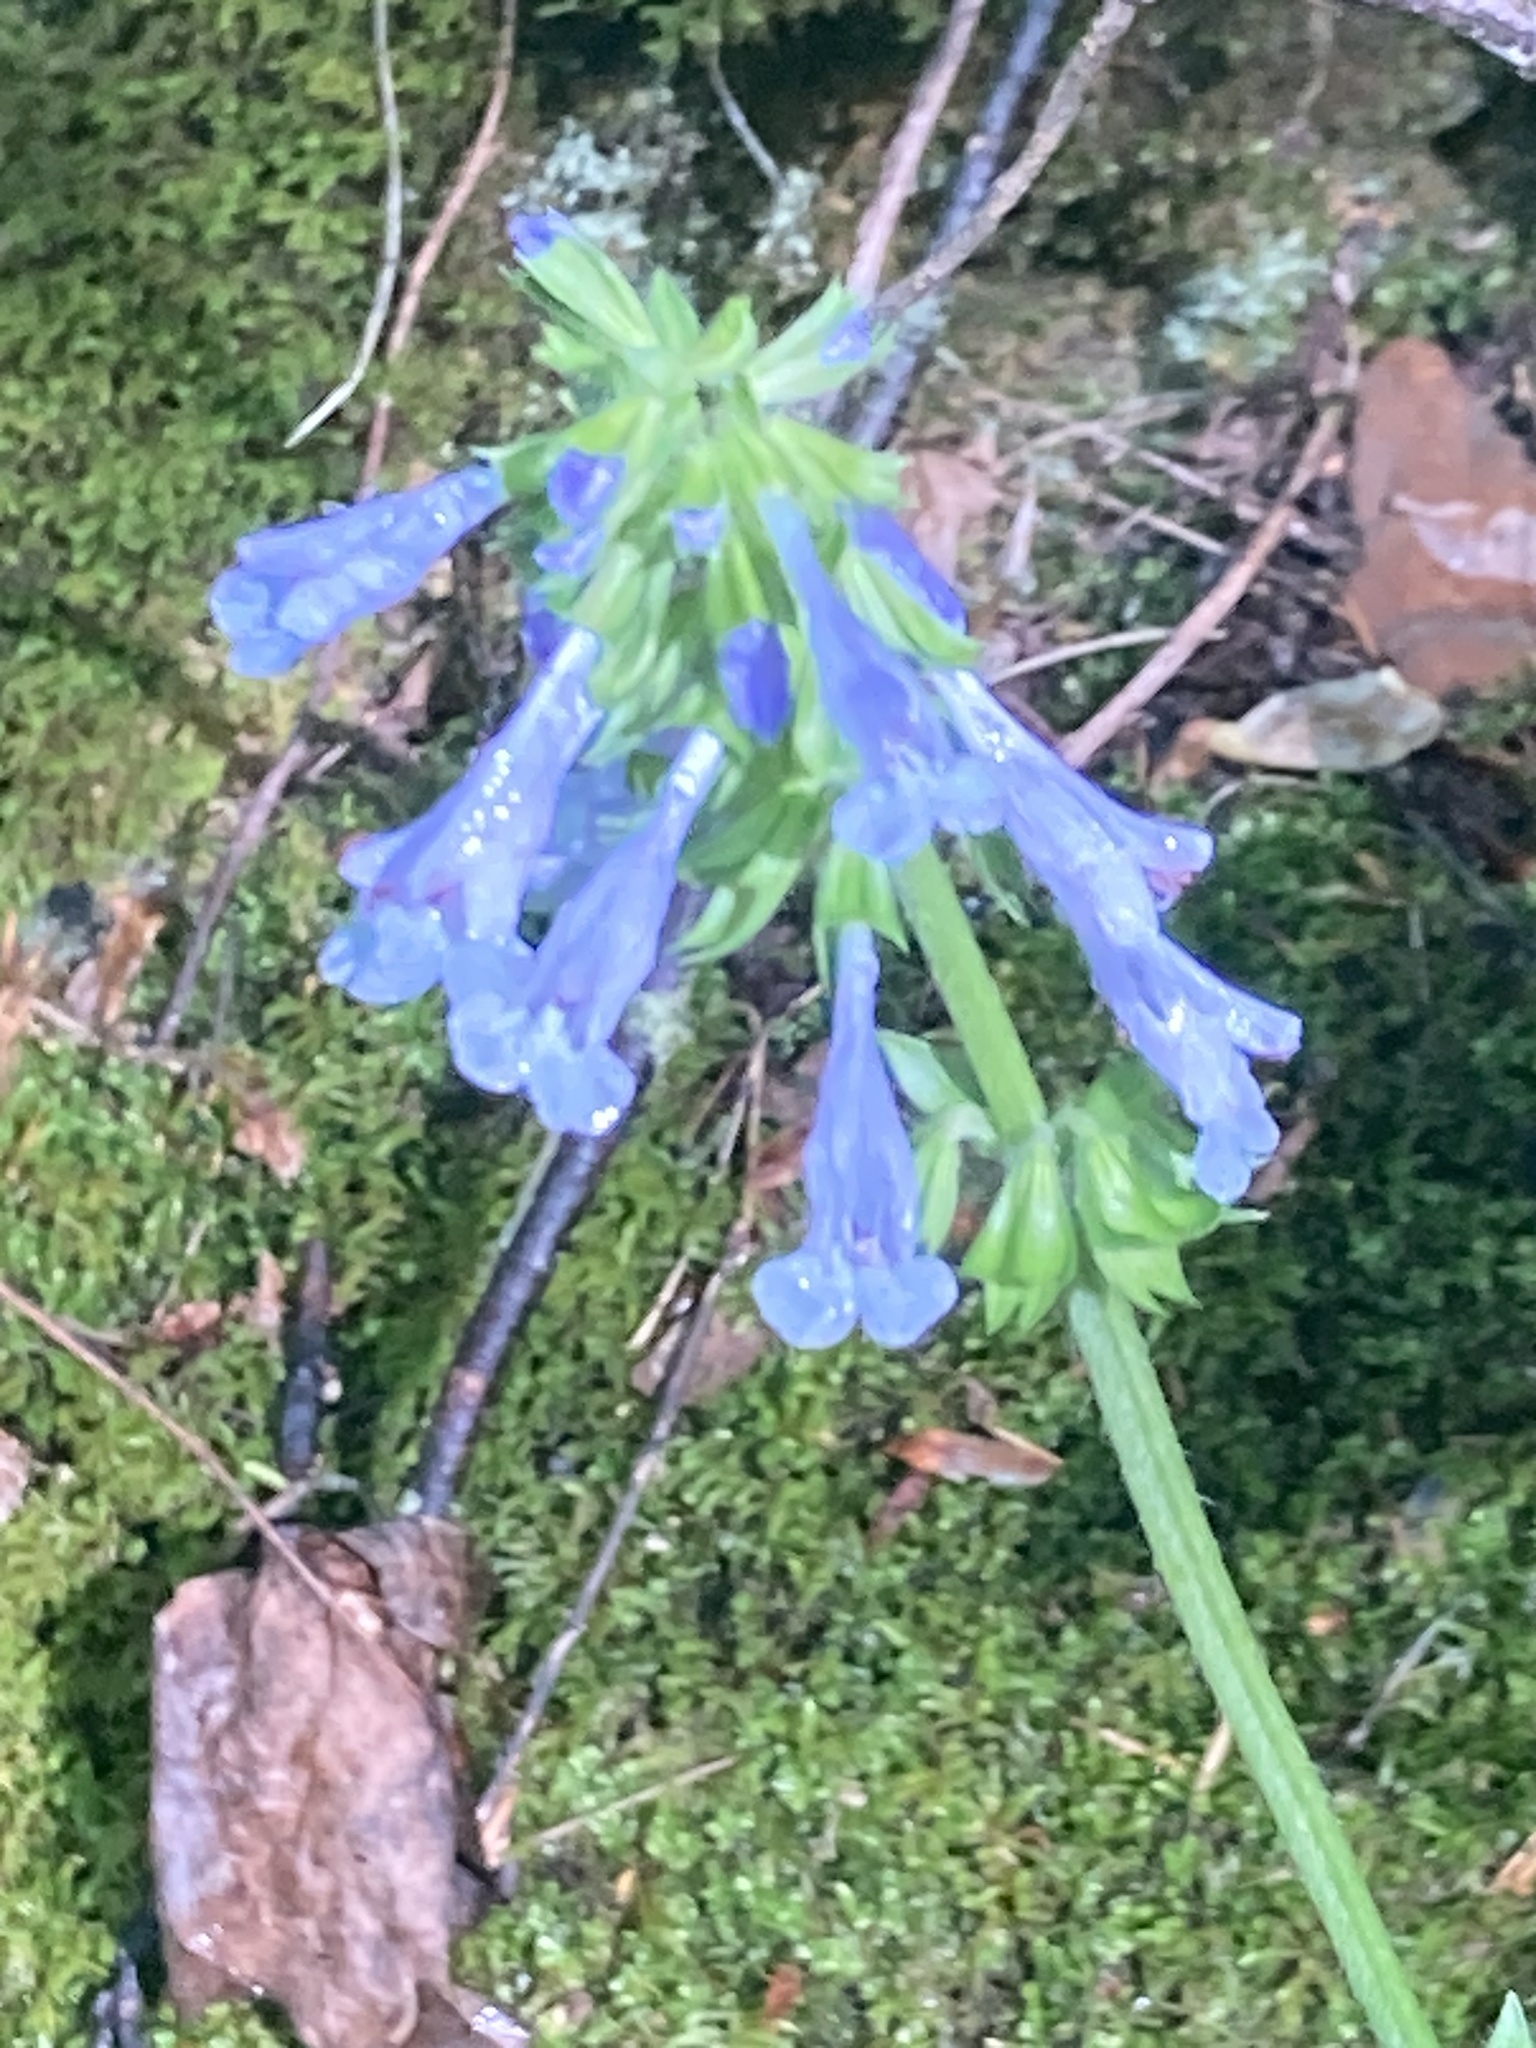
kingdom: Plantae
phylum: Tracheophyta
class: Magnoliopsida
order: Lamiales
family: Lamiaceae
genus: Salvia
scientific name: Salvia lyrata
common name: Cancerweed
